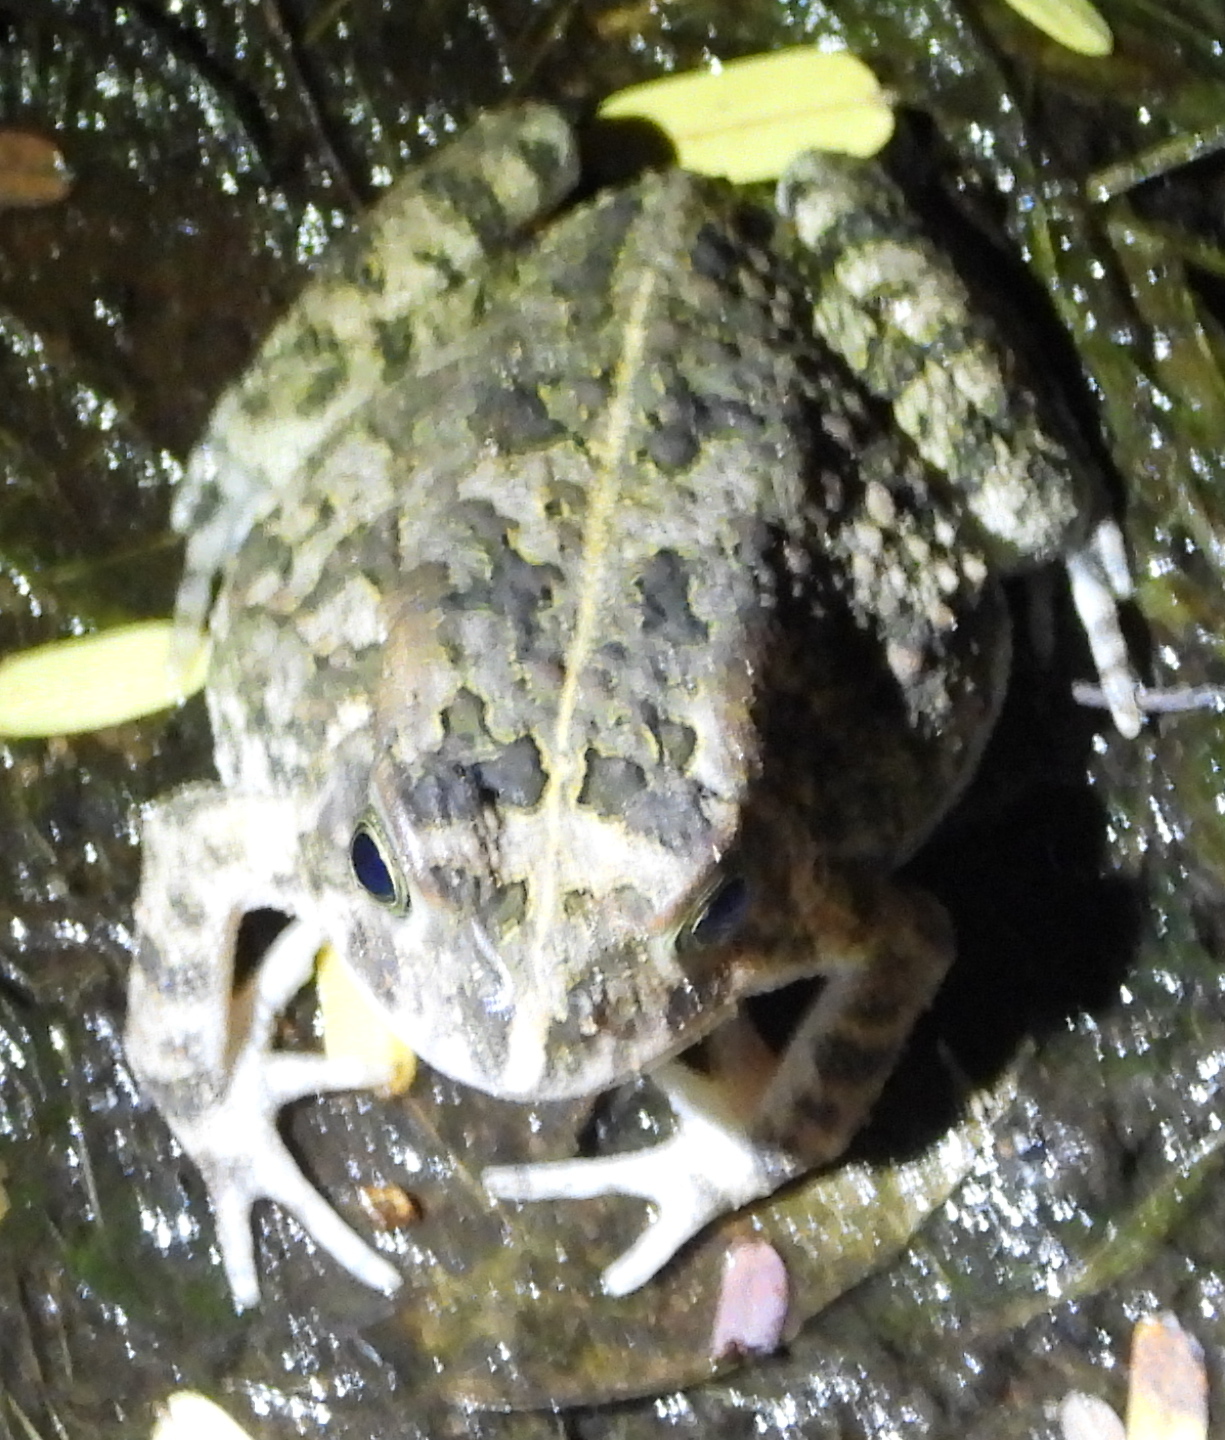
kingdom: Animalia
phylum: Chordata
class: Amphibia
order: Anura
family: Bufonidae
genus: Sclerophrys
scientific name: Sclerophrys pusilla
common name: Merten's striped toad
